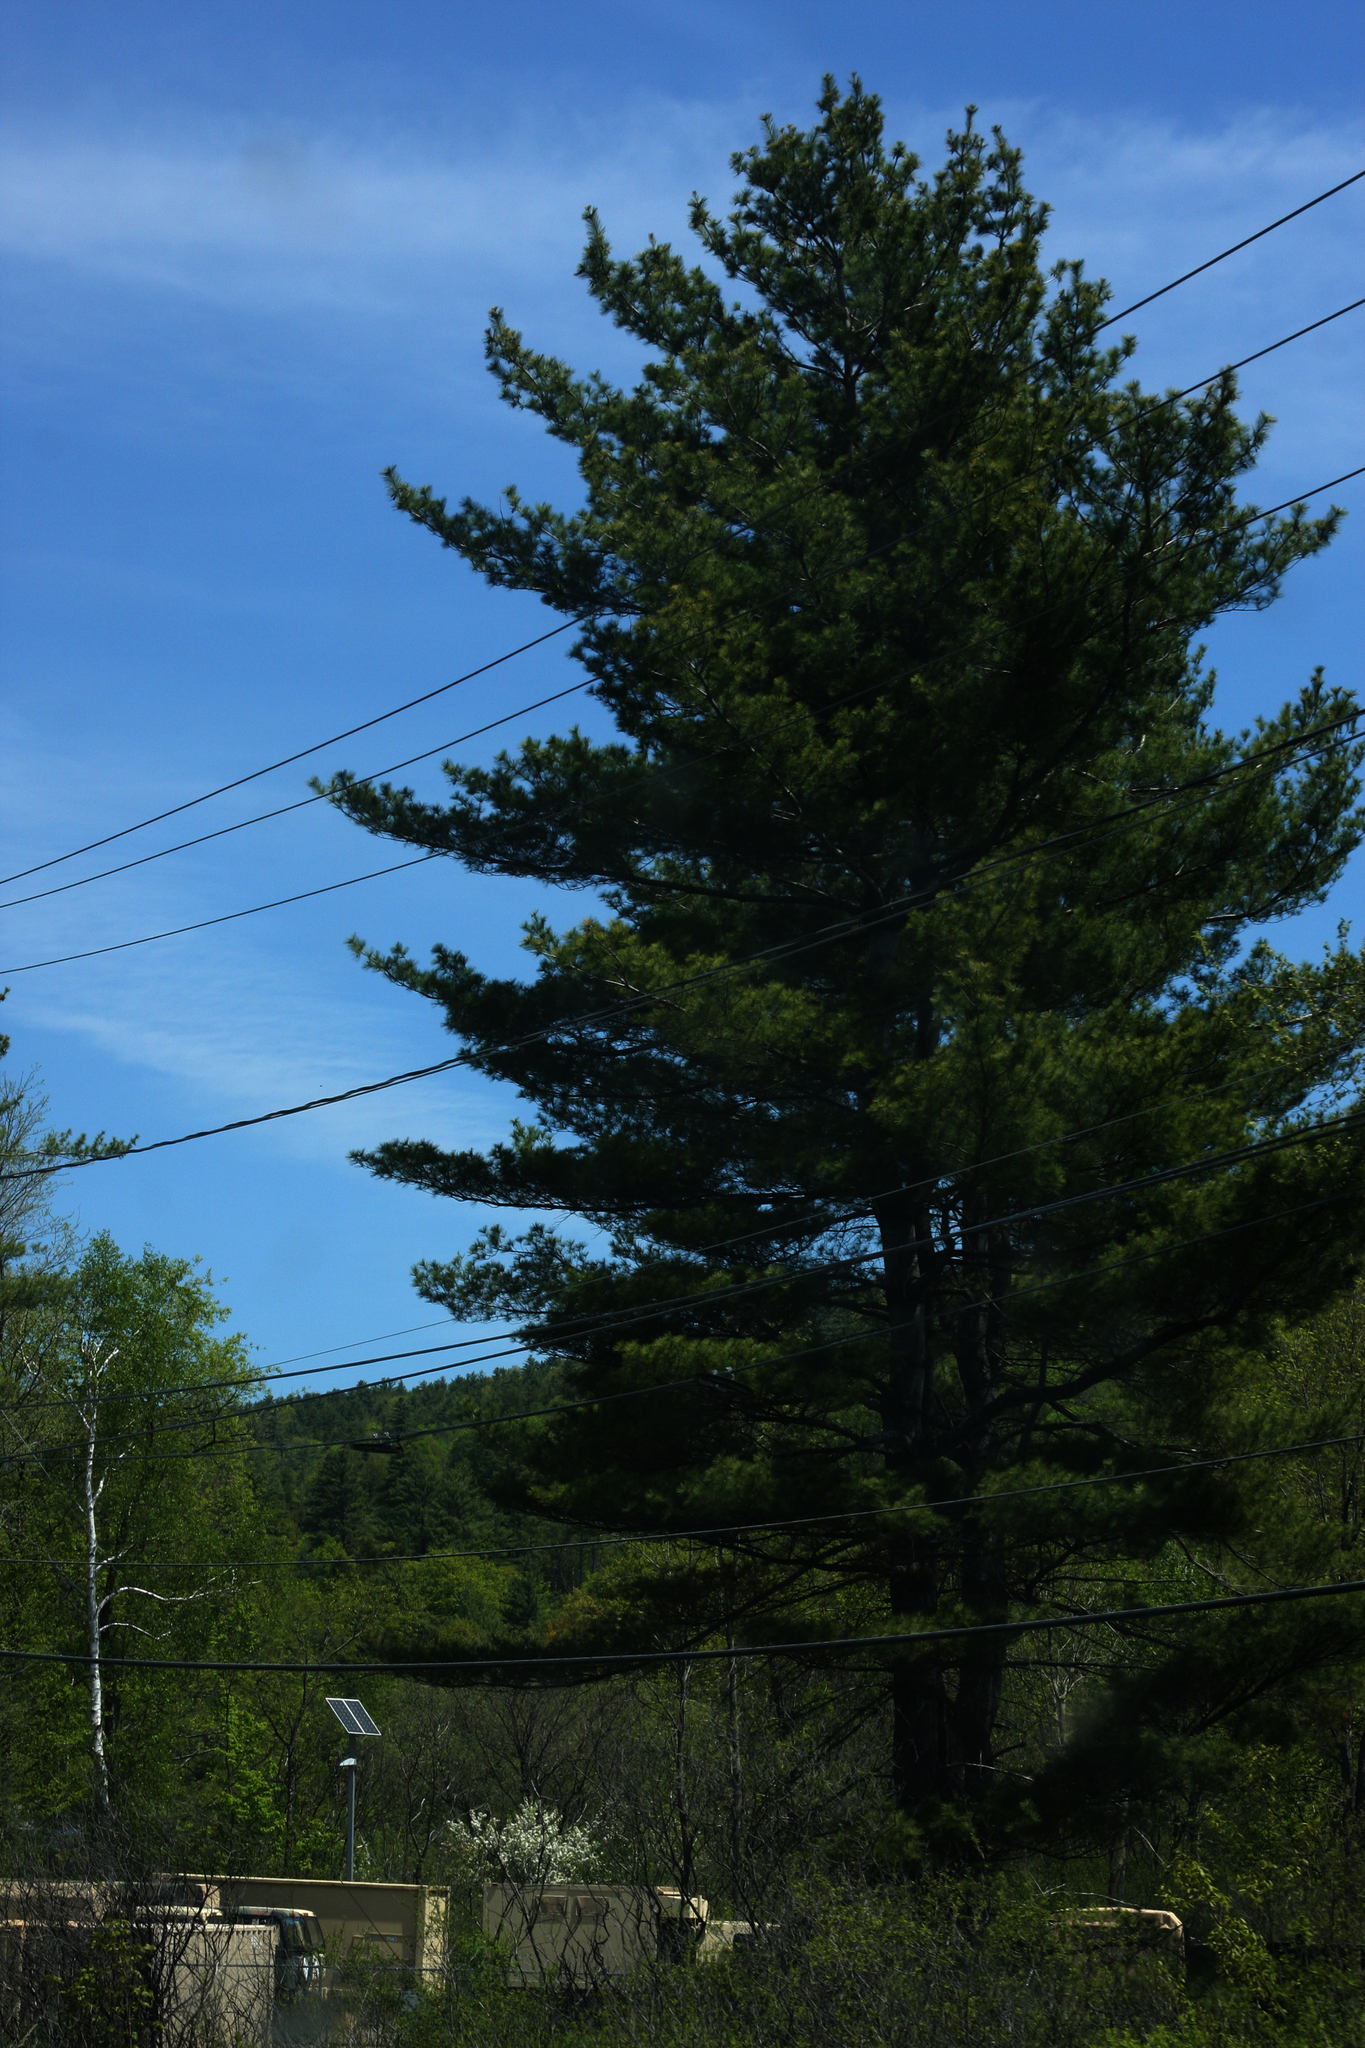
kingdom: Plantae
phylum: Tracheophyta
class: Pinopsida
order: Pinales
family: Pinaceae
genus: Pinus
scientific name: Pinus strobus
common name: Weymouth pine
